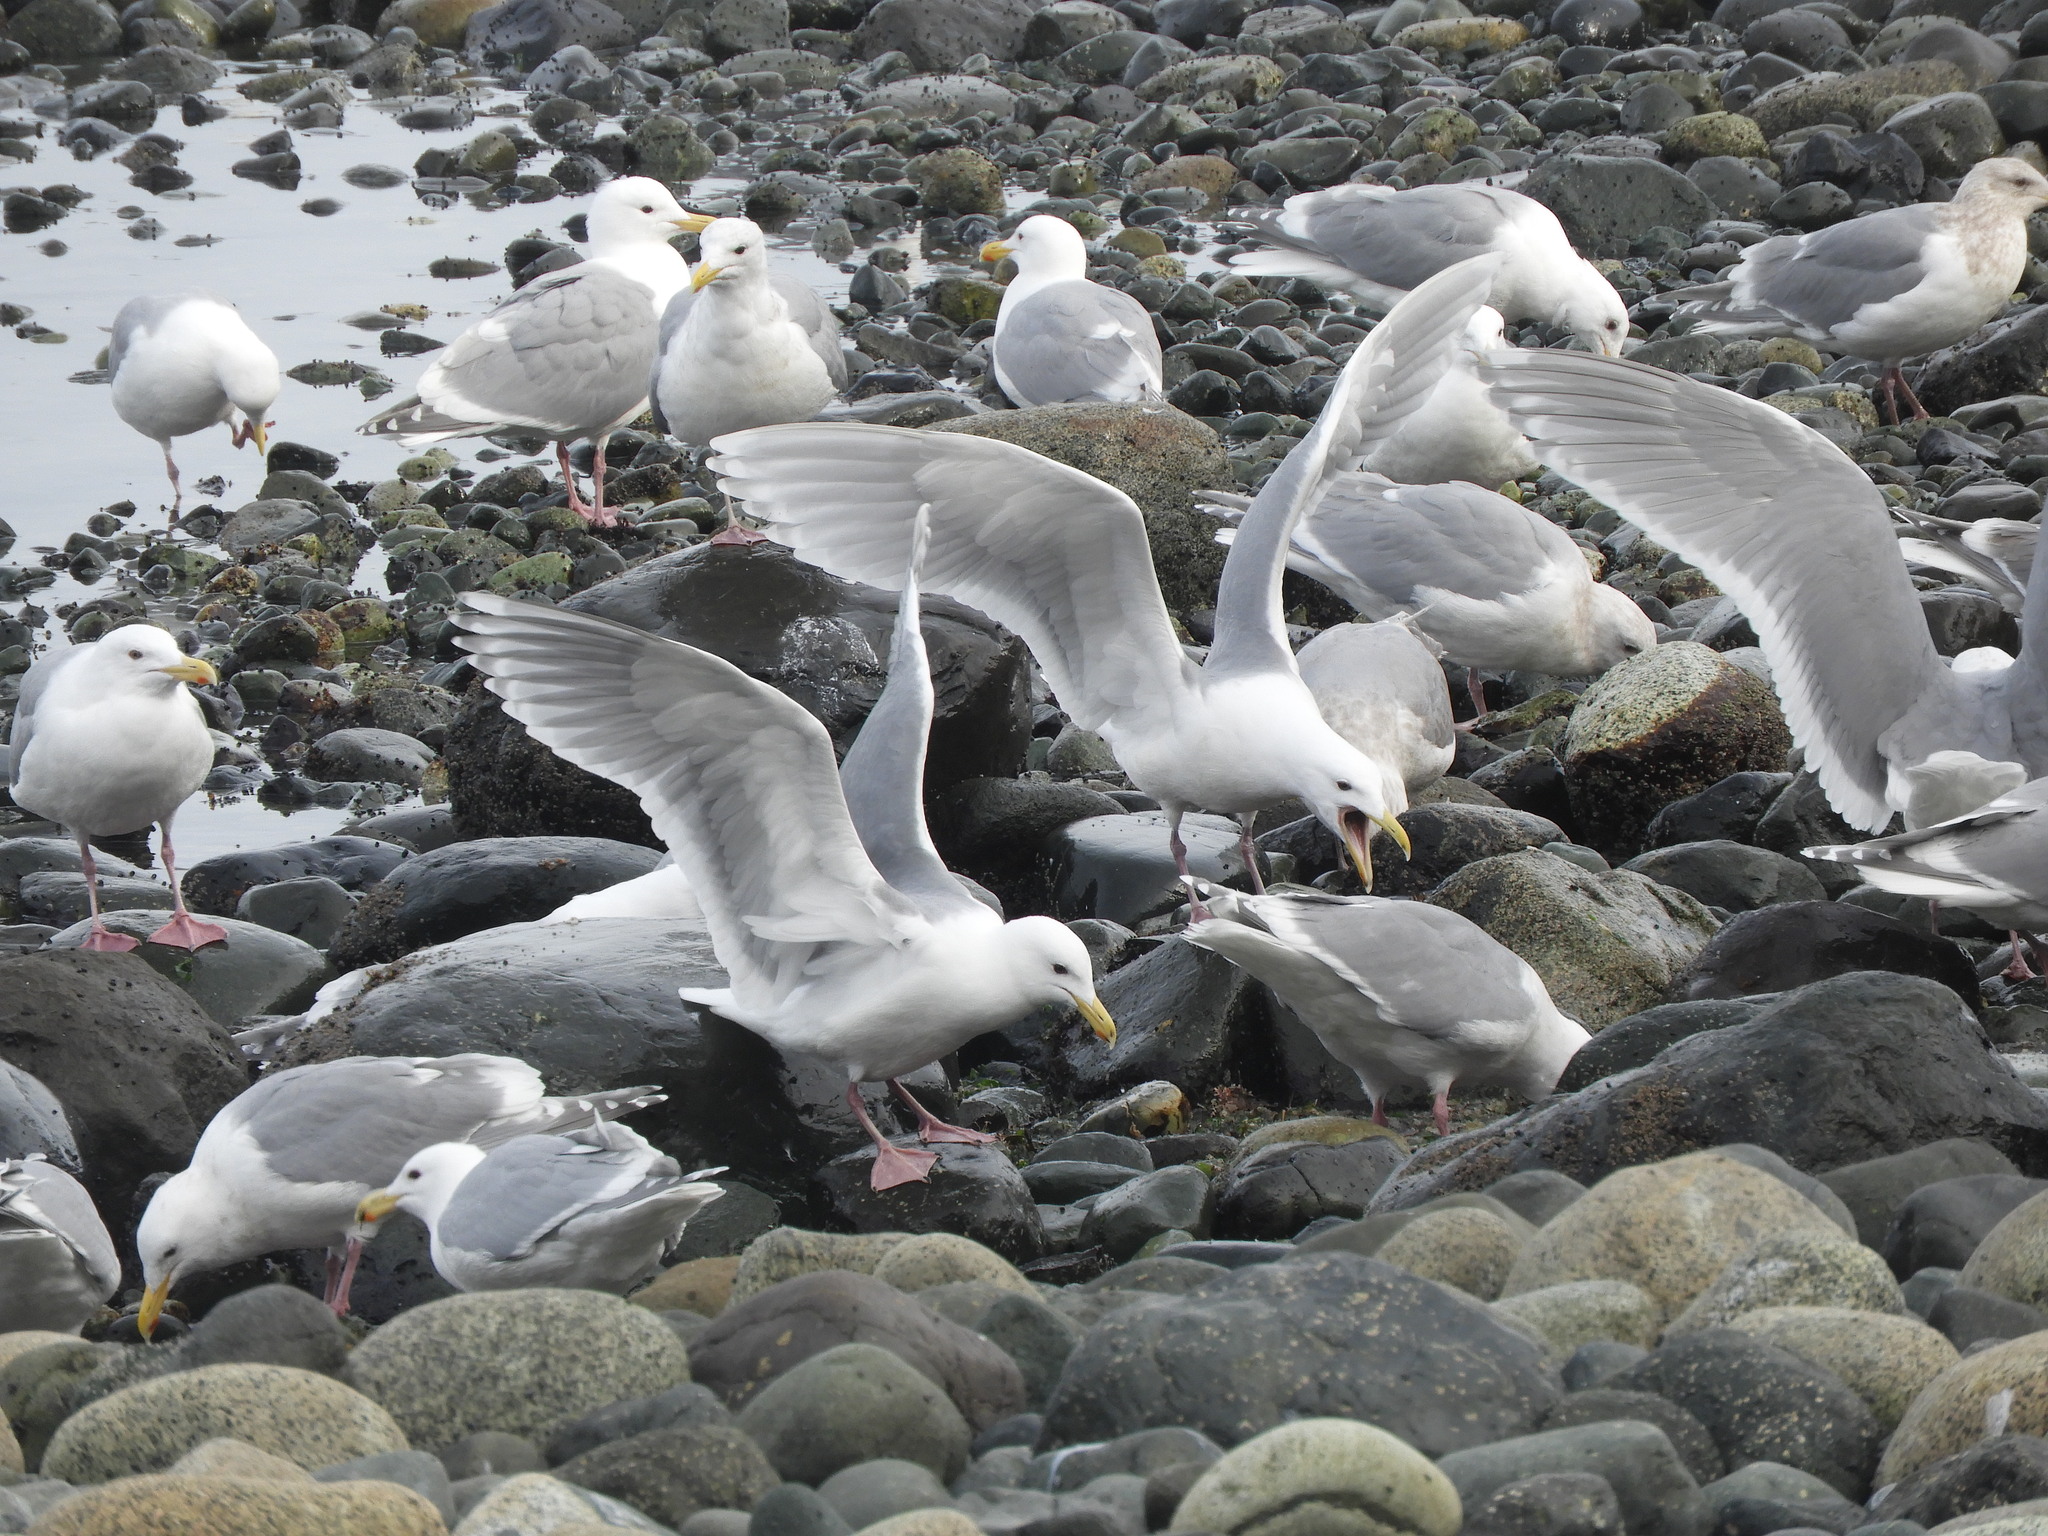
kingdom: Animalia
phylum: Chordata
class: Aves
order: Charadriiformes
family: Laridae
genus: Larus
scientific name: Larus glaucescens
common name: Glaucous-winged gull
